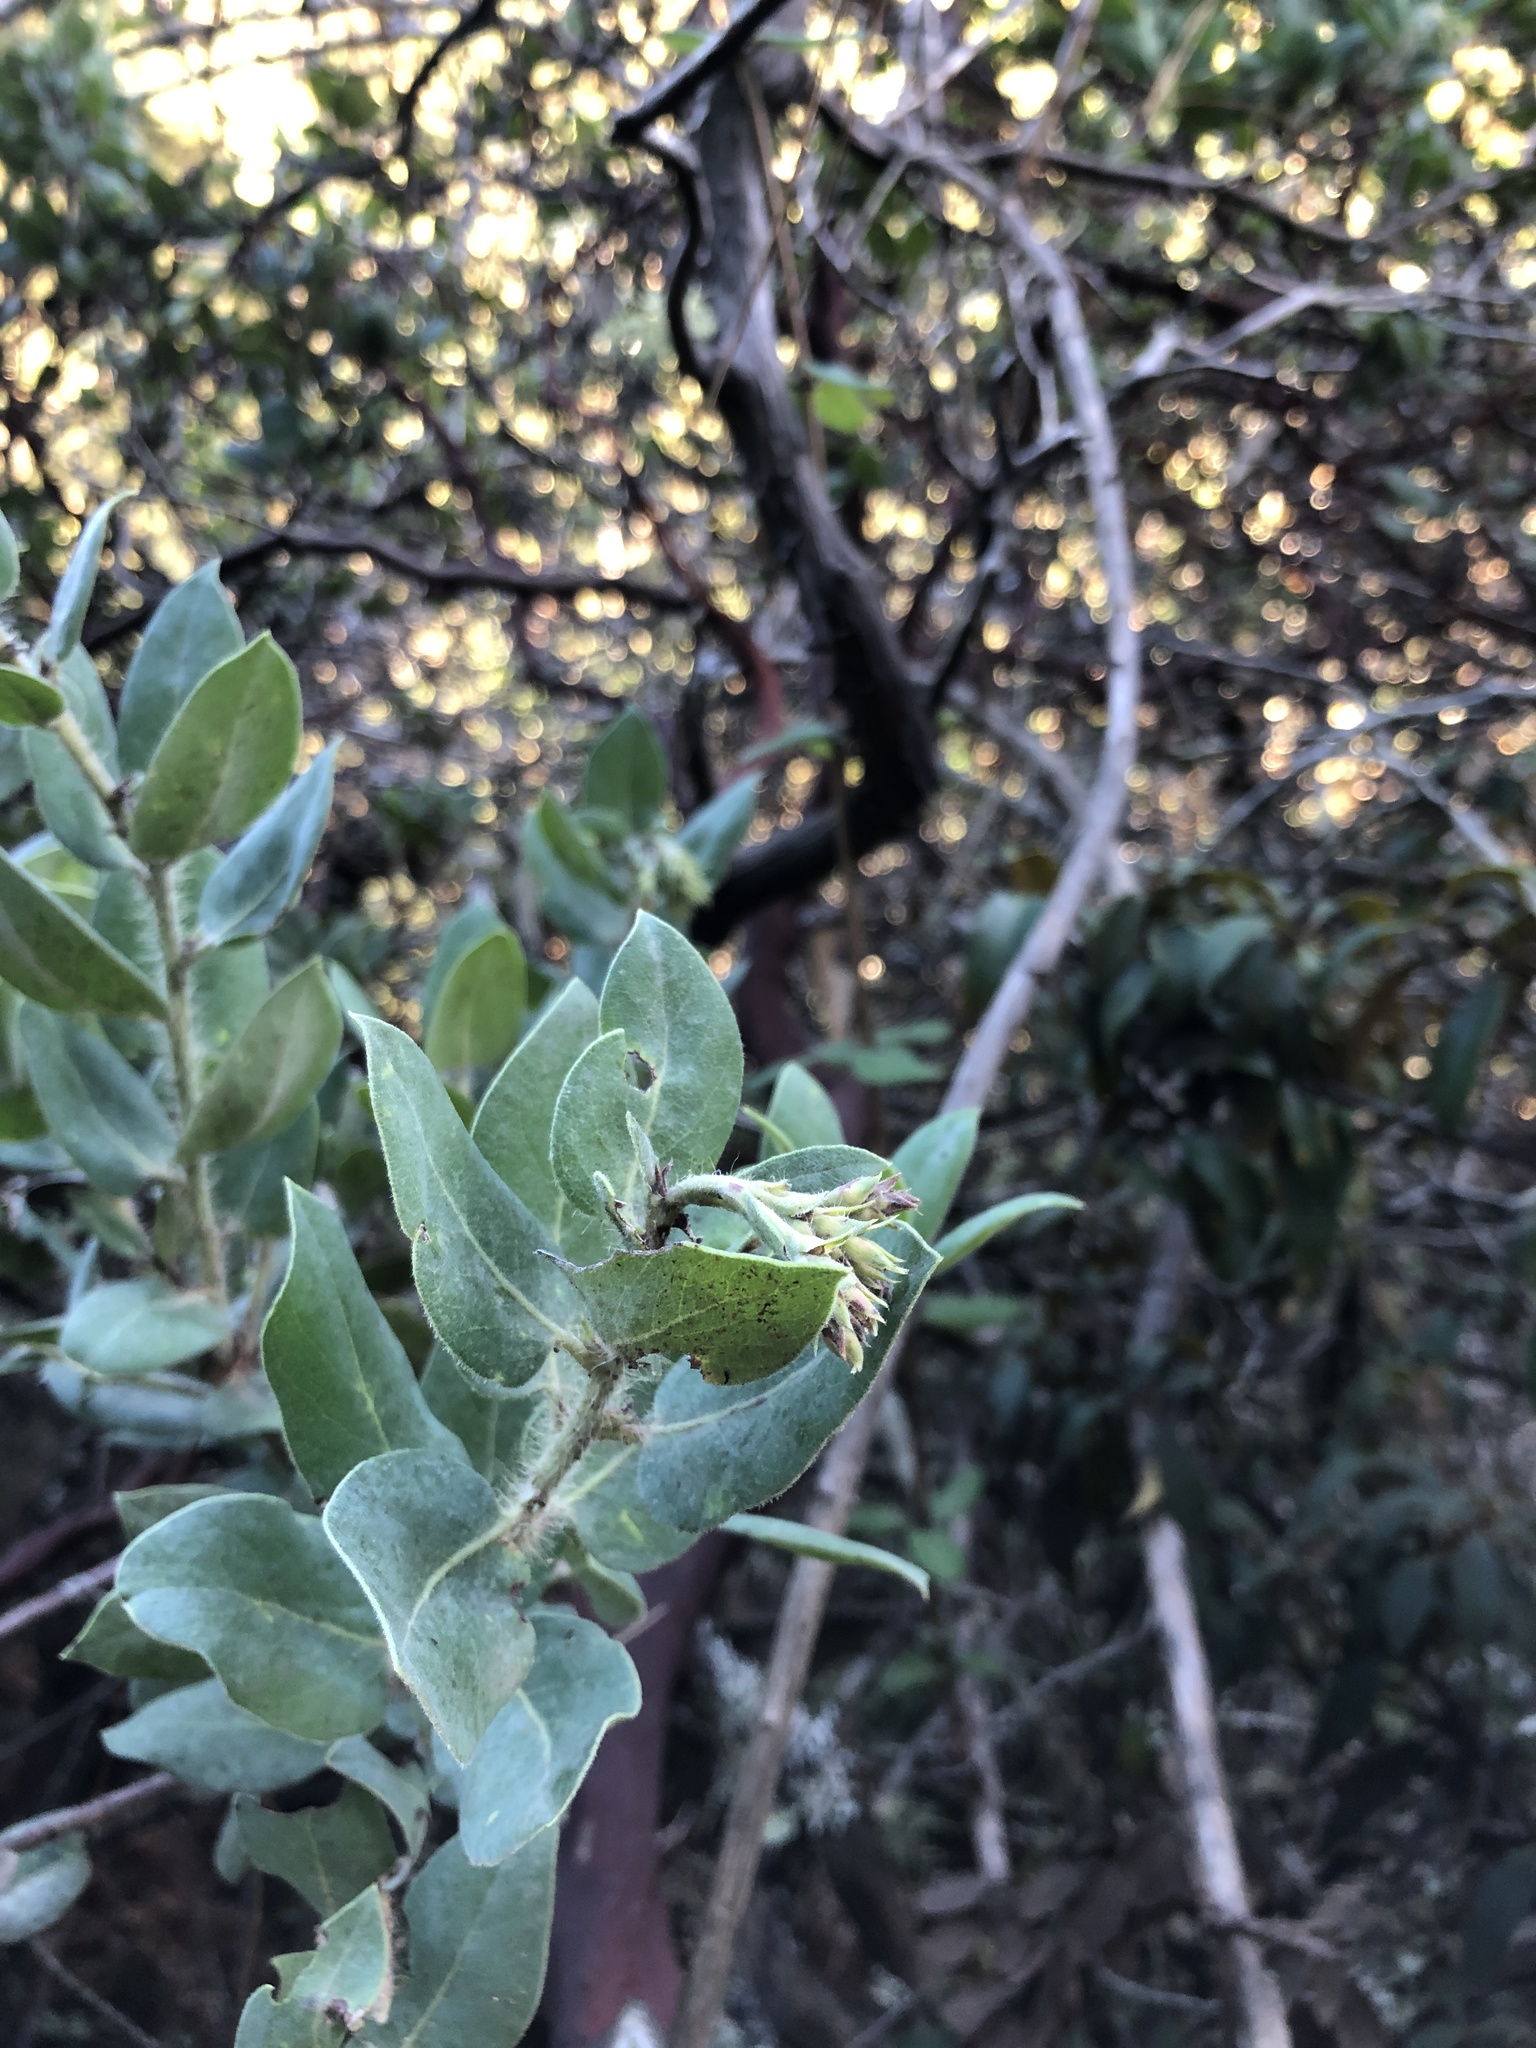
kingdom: Plantae
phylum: Tracheophyta
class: Magnoliopsida
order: Ericales
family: Ericaceae
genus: Arctostaphylos
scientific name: Arctostaphylos crustacea
